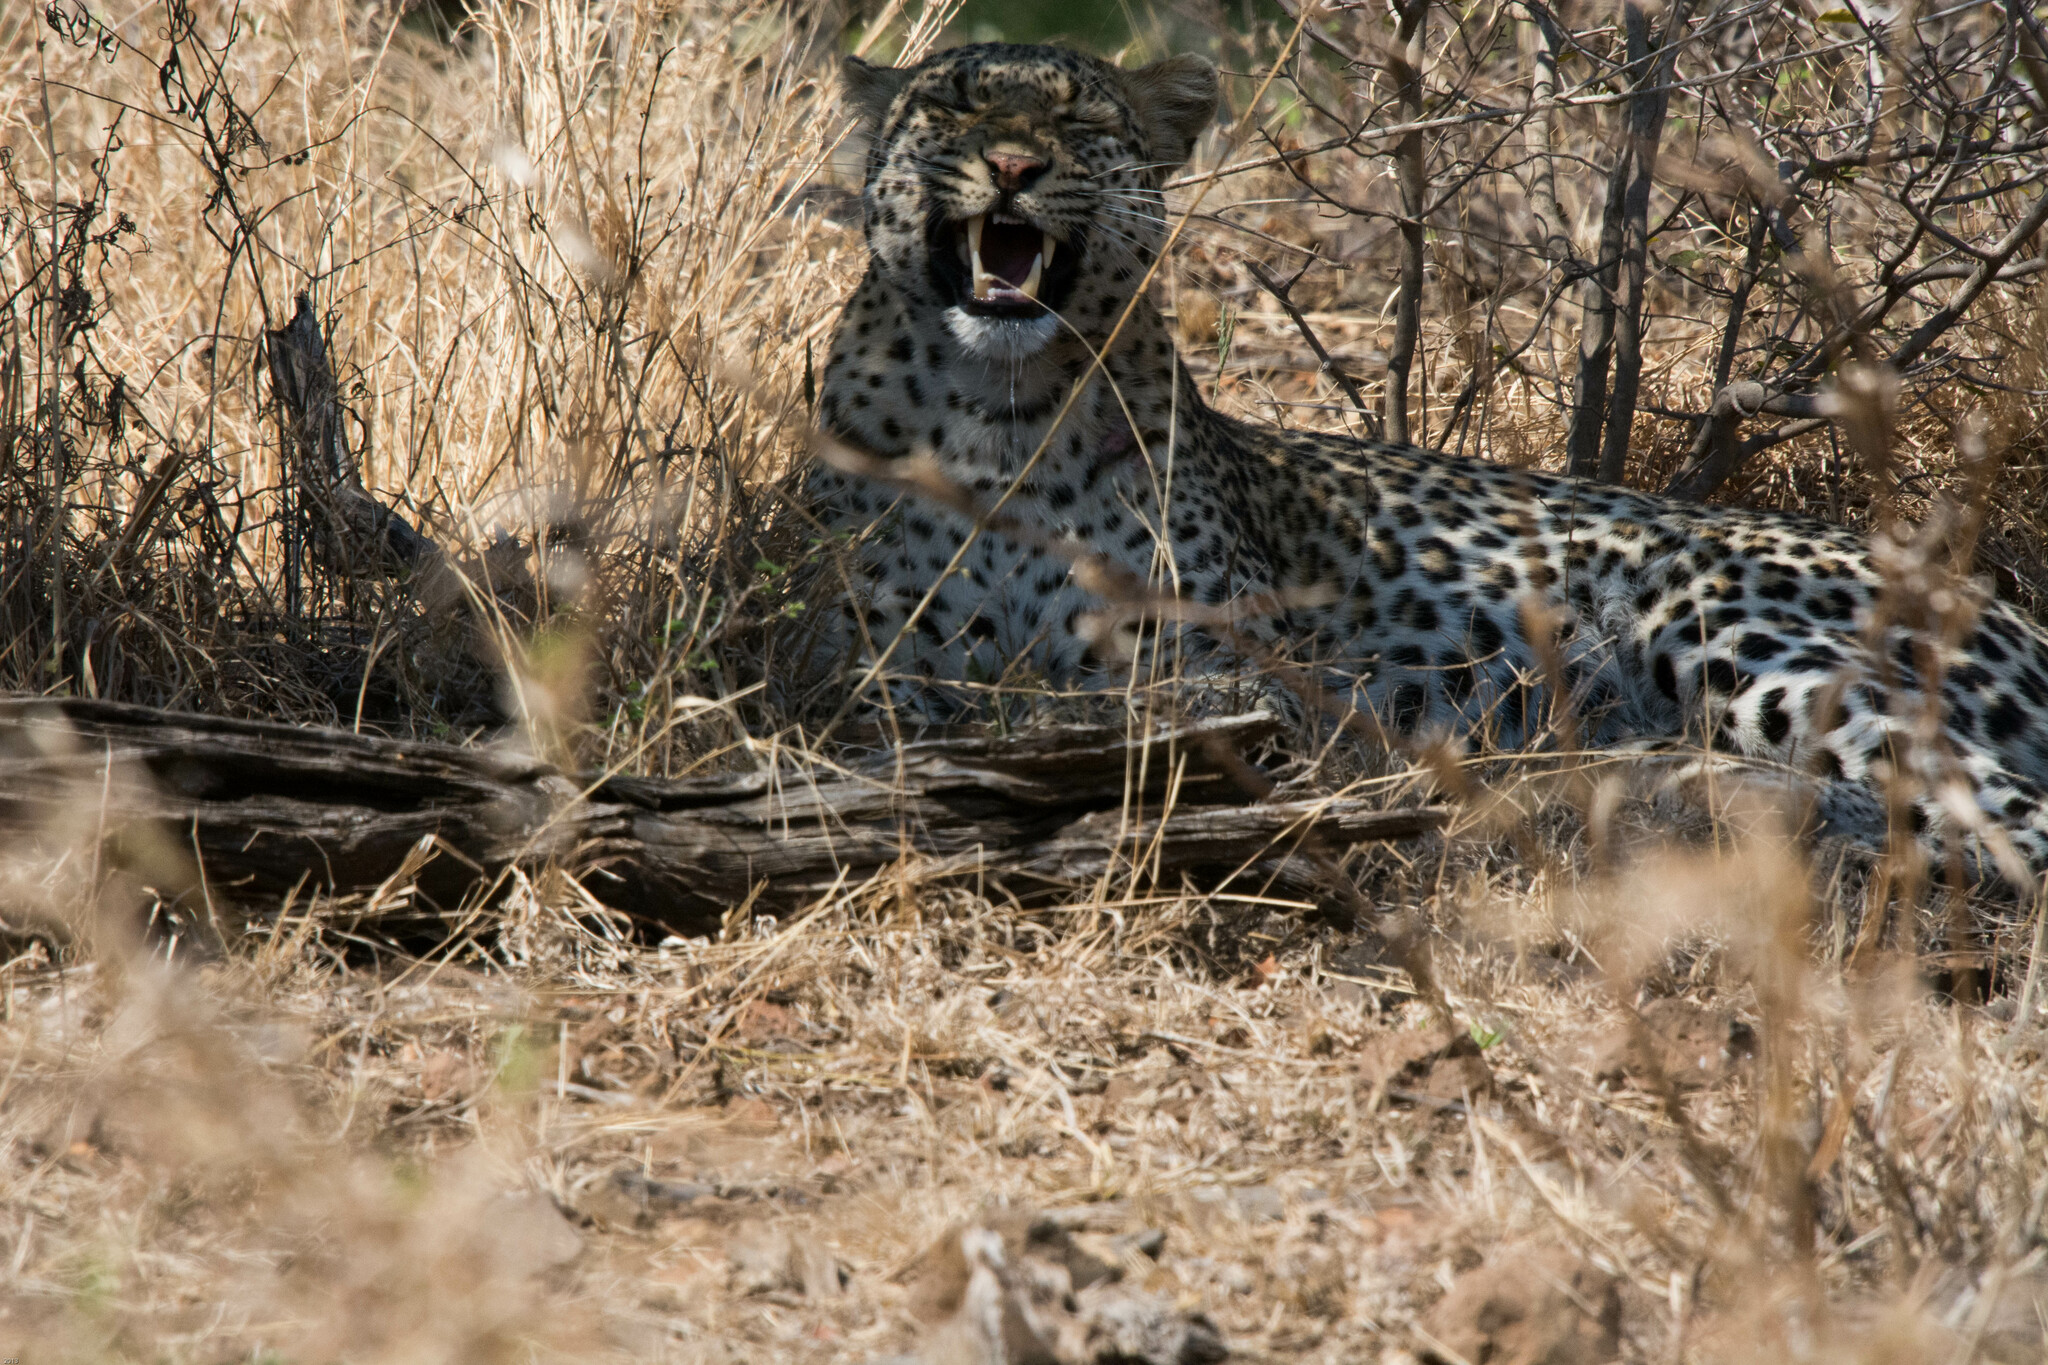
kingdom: Animalia
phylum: Chordata
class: Mammalia
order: Carnivora
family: Felidae
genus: Panthera
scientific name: Panthera pardus
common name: Leopard
